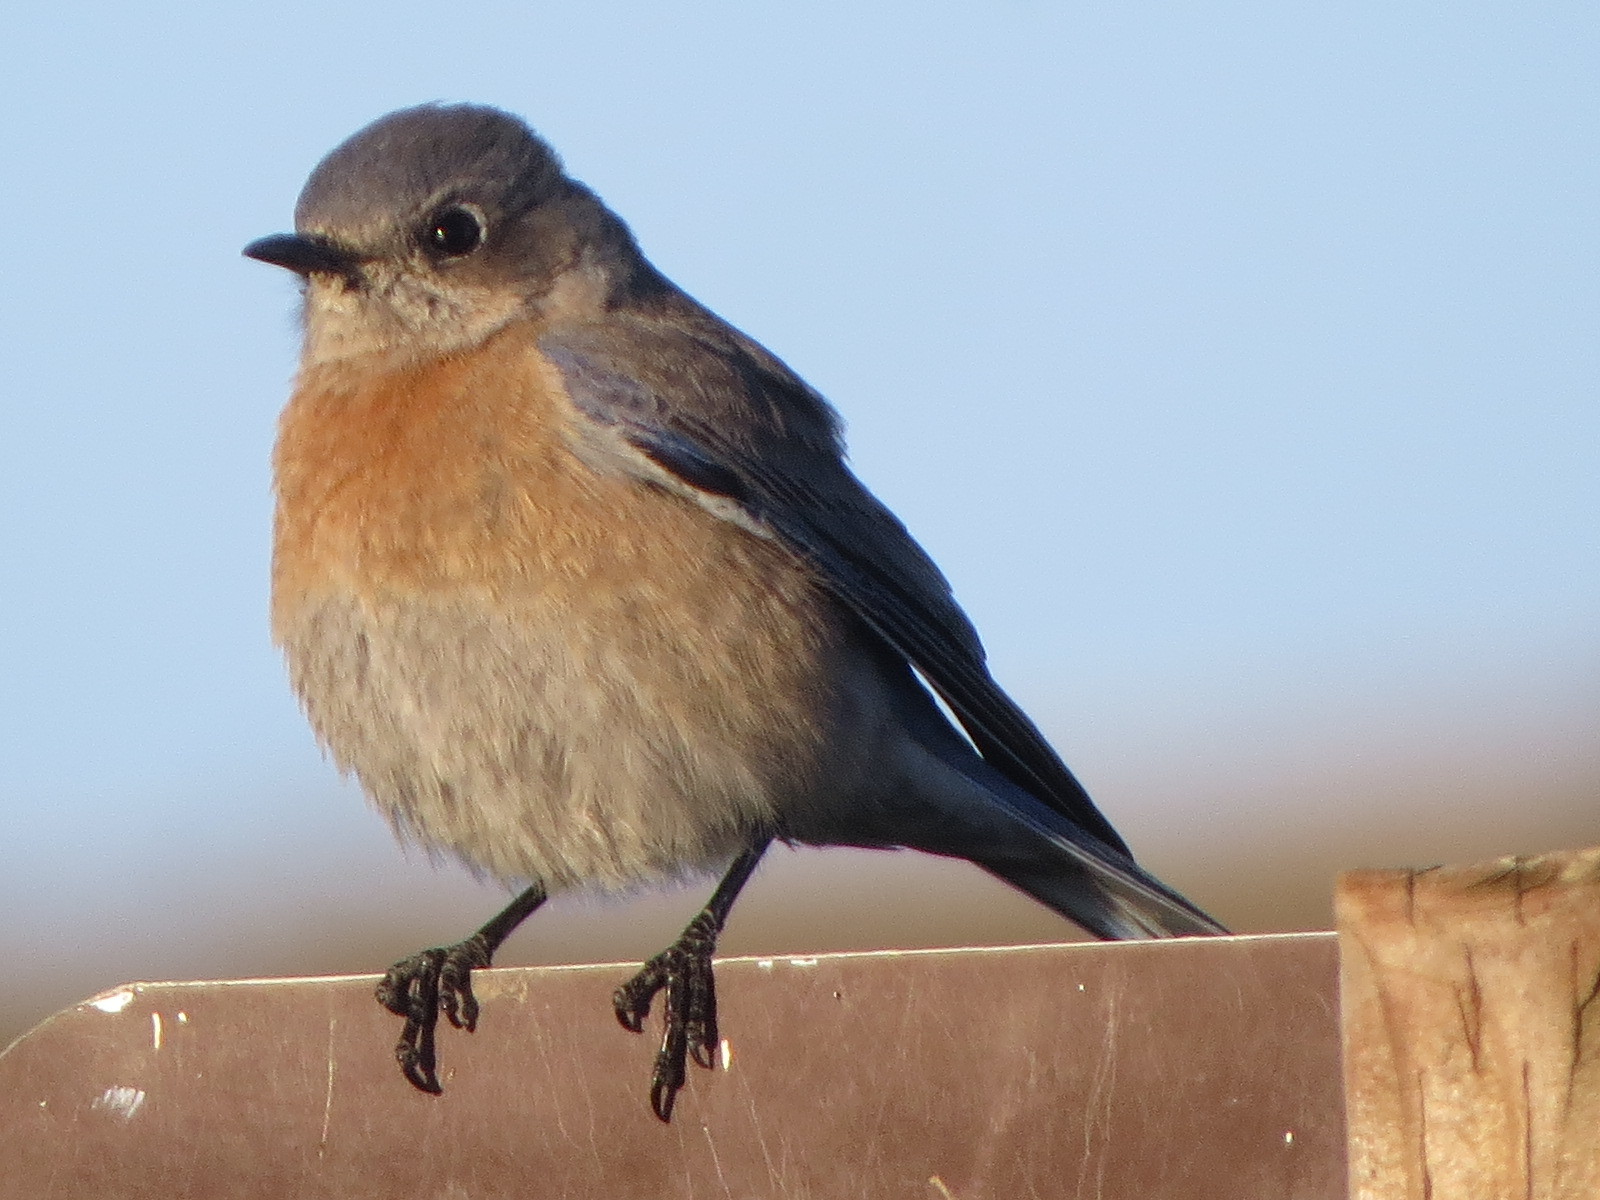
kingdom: Animalia
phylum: Chordata
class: Aves
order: Passeriformes
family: Turdidae
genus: Sialia
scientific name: Sialia mexicana
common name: Western bluebird
